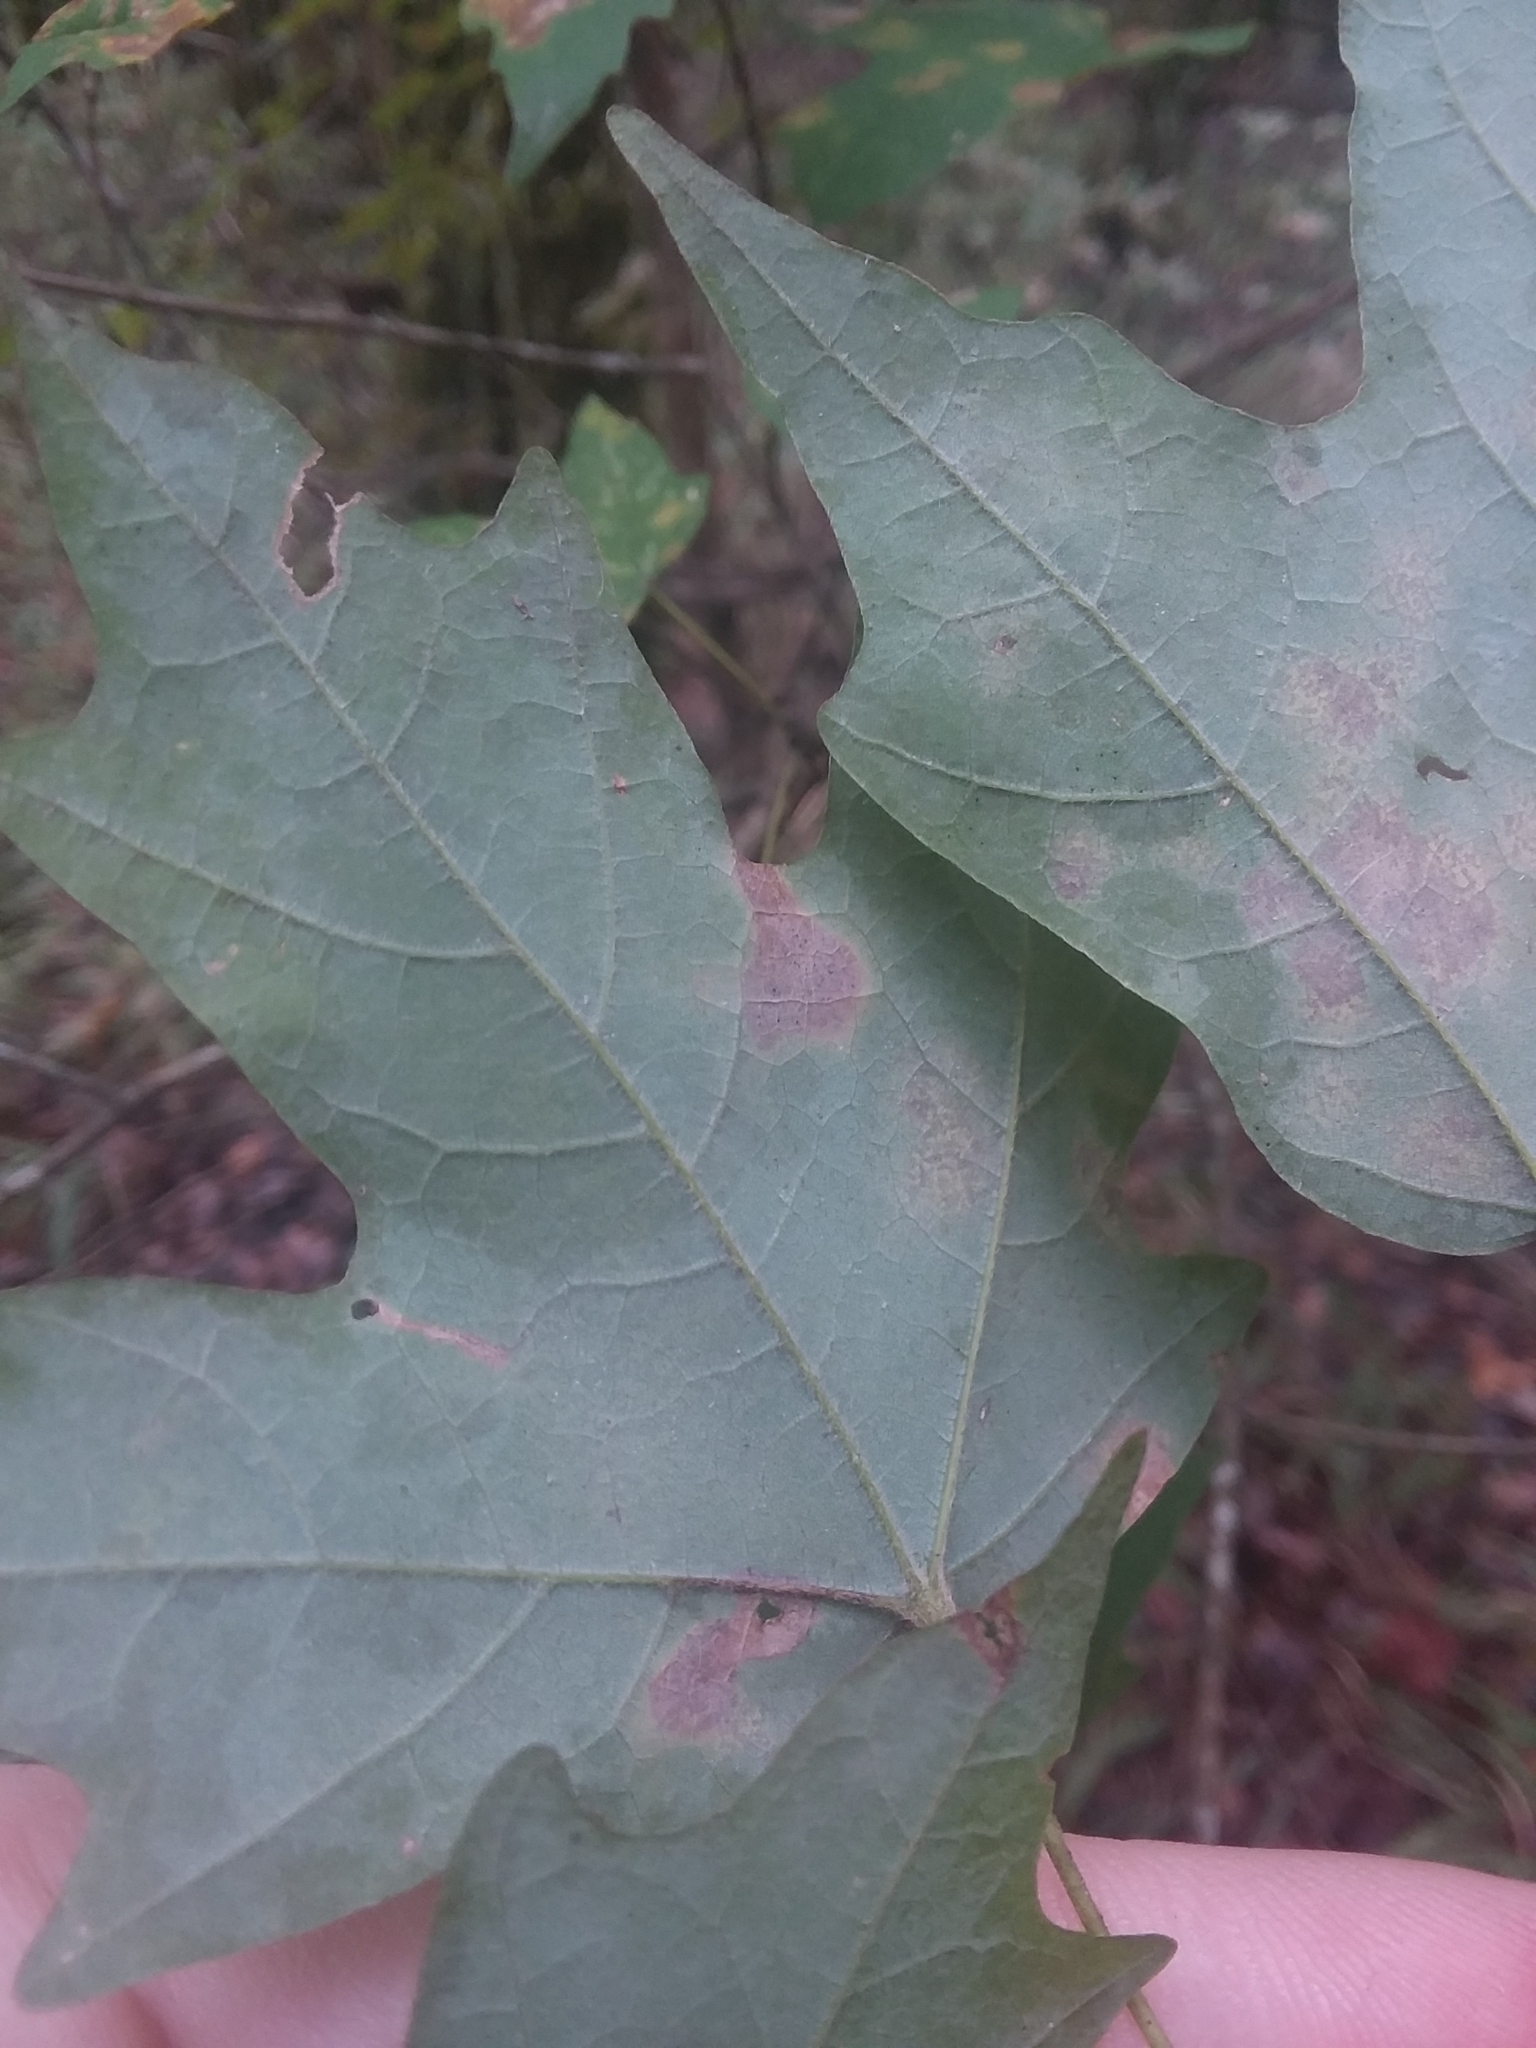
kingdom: Plantae
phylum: Tracheophyta
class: Magnoliopsida
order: Sapindales
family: Sapindaceae
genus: Acer
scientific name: Acer floridanum
